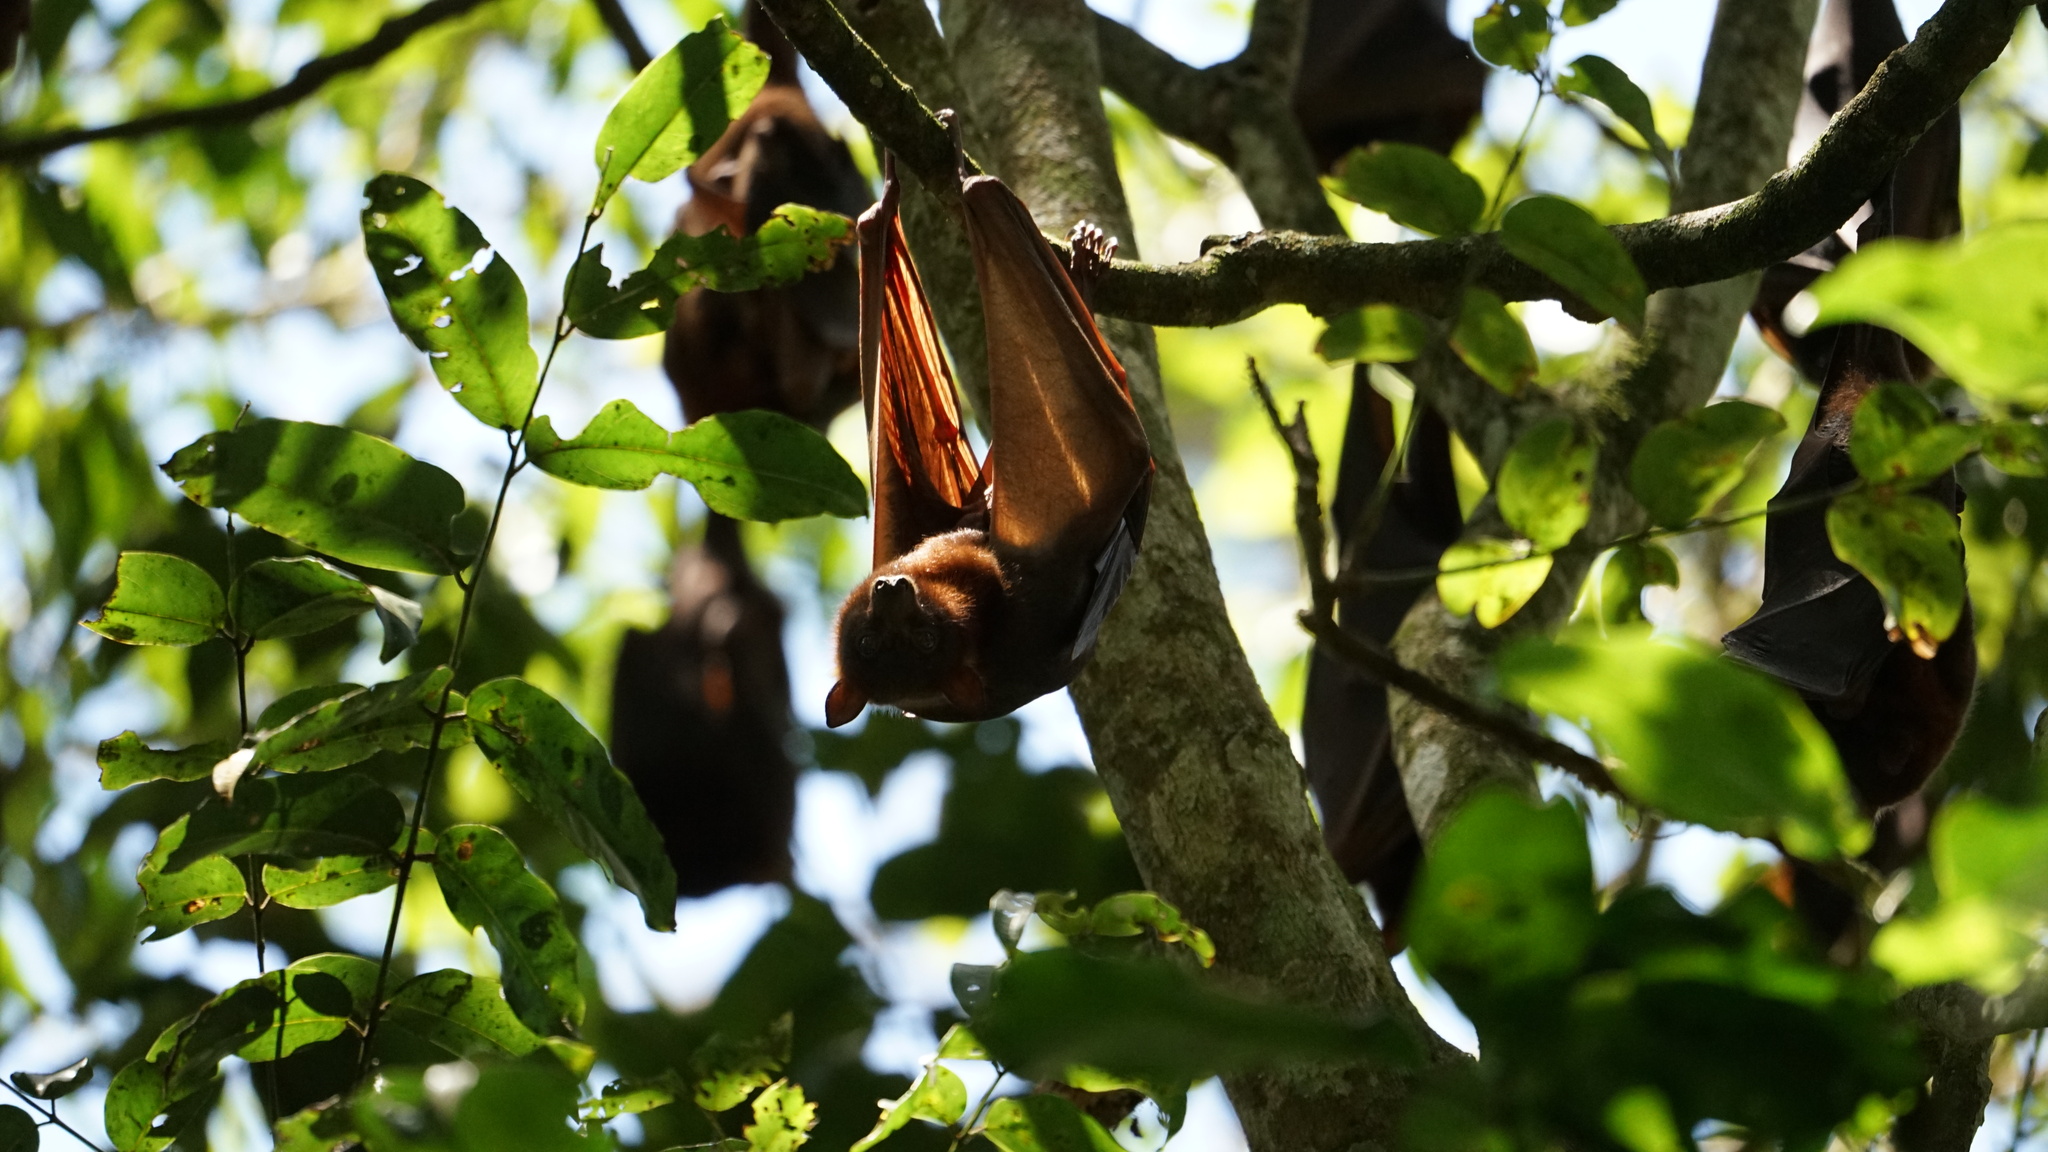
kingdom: Animalia
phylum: Chordata
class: Mammalia
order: Chiroptera
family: Pteropodidae
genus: Pteropus
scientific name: Pteropus scapulatus
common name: Little red flying fox
